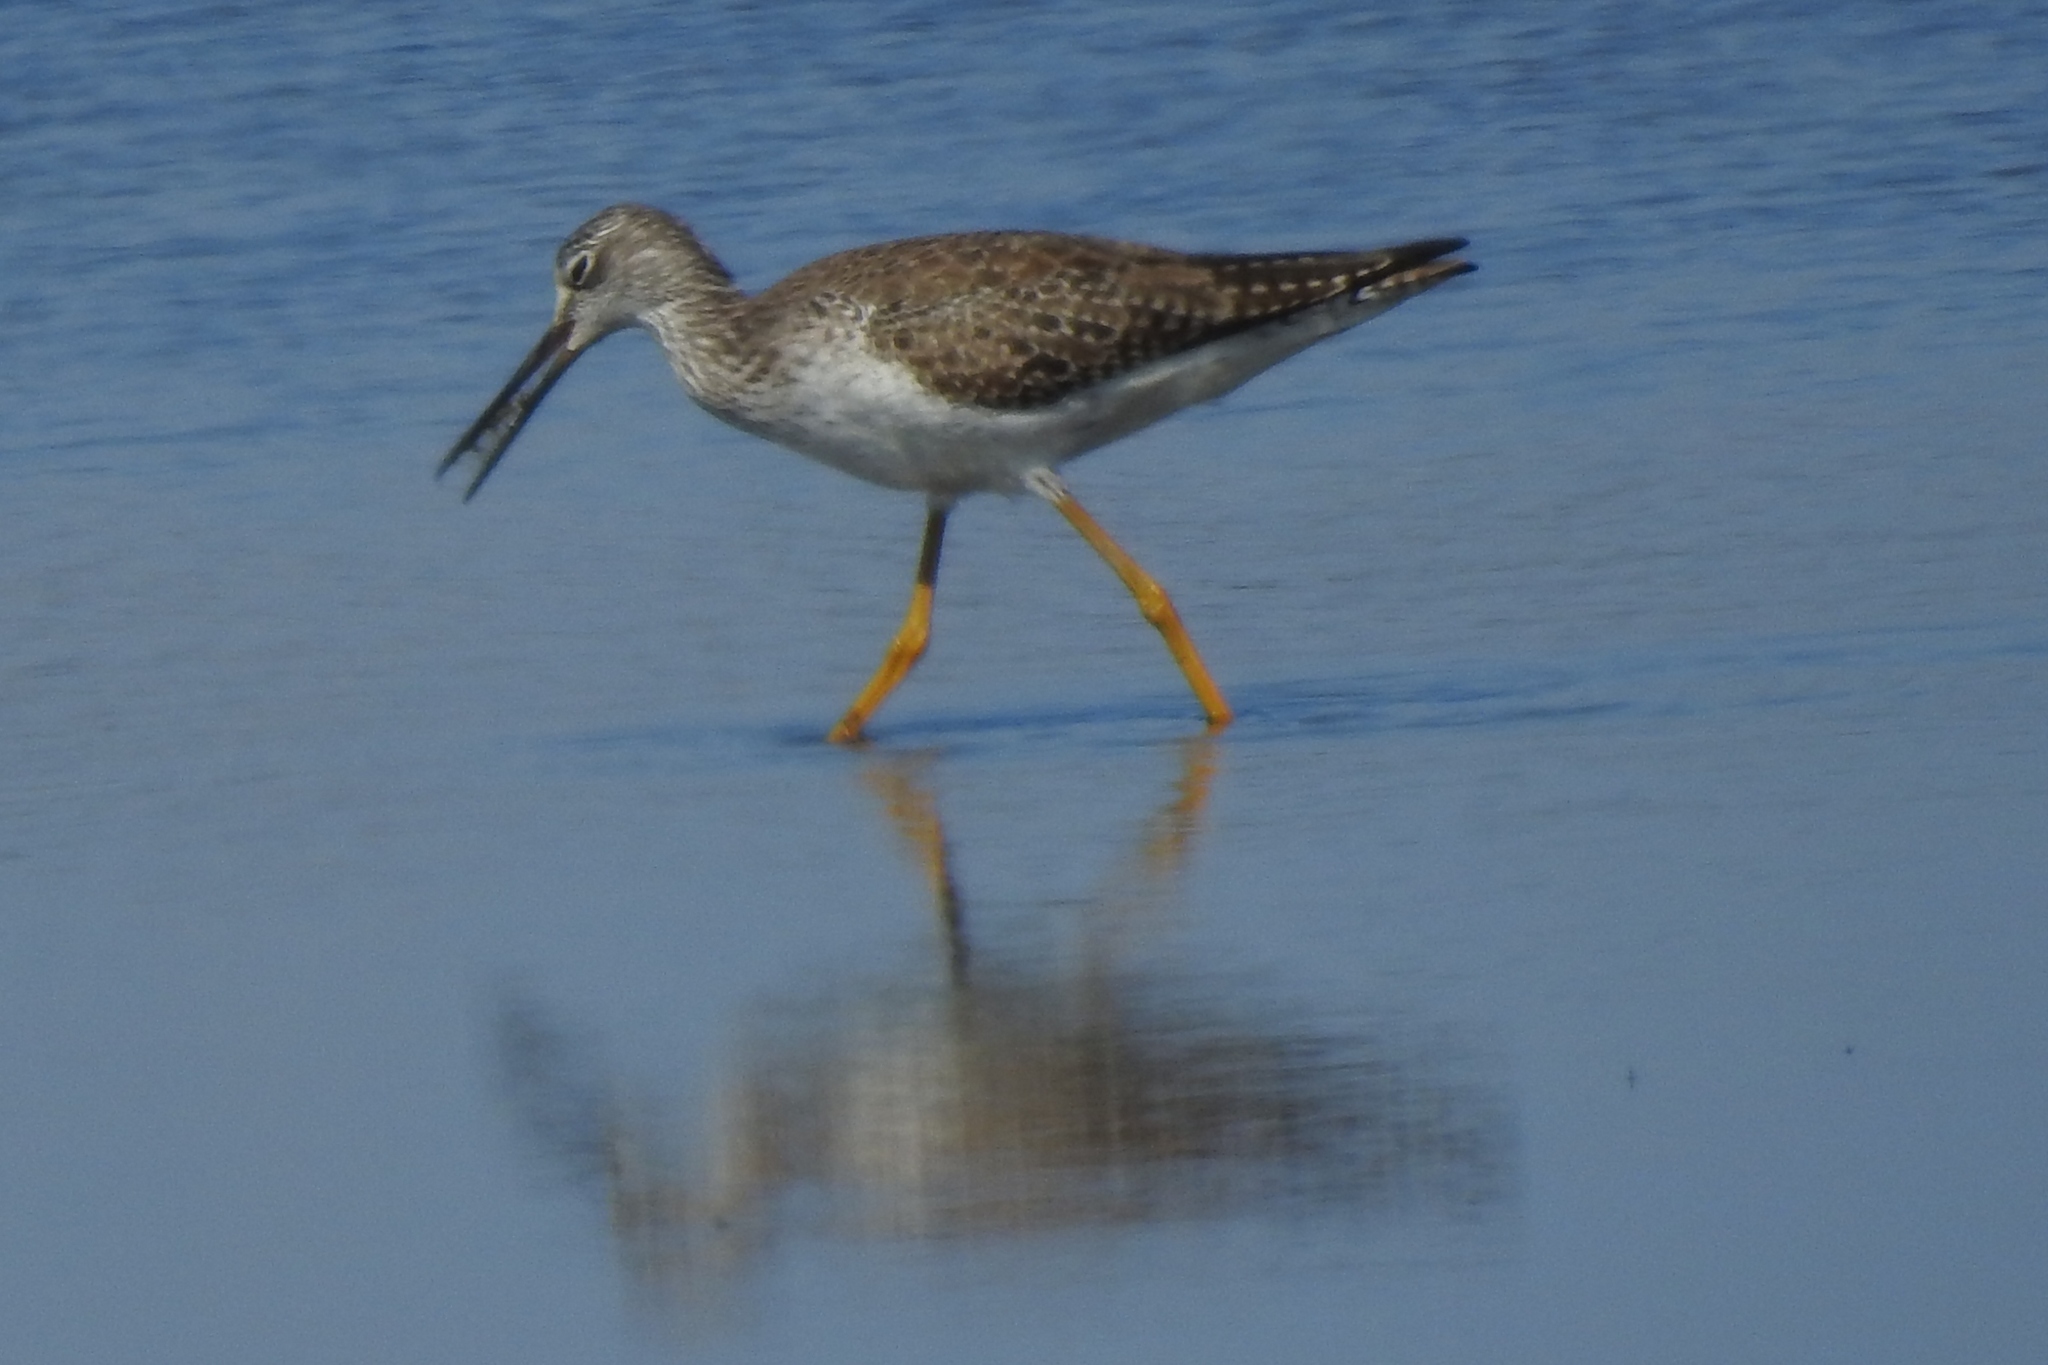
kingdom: Animalia
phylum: Chordata
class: Aves
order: Charadriiformes
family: Scolopacidae
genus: Tringa
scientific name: Tringa melanoleuca
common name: Greater yellowlegs
